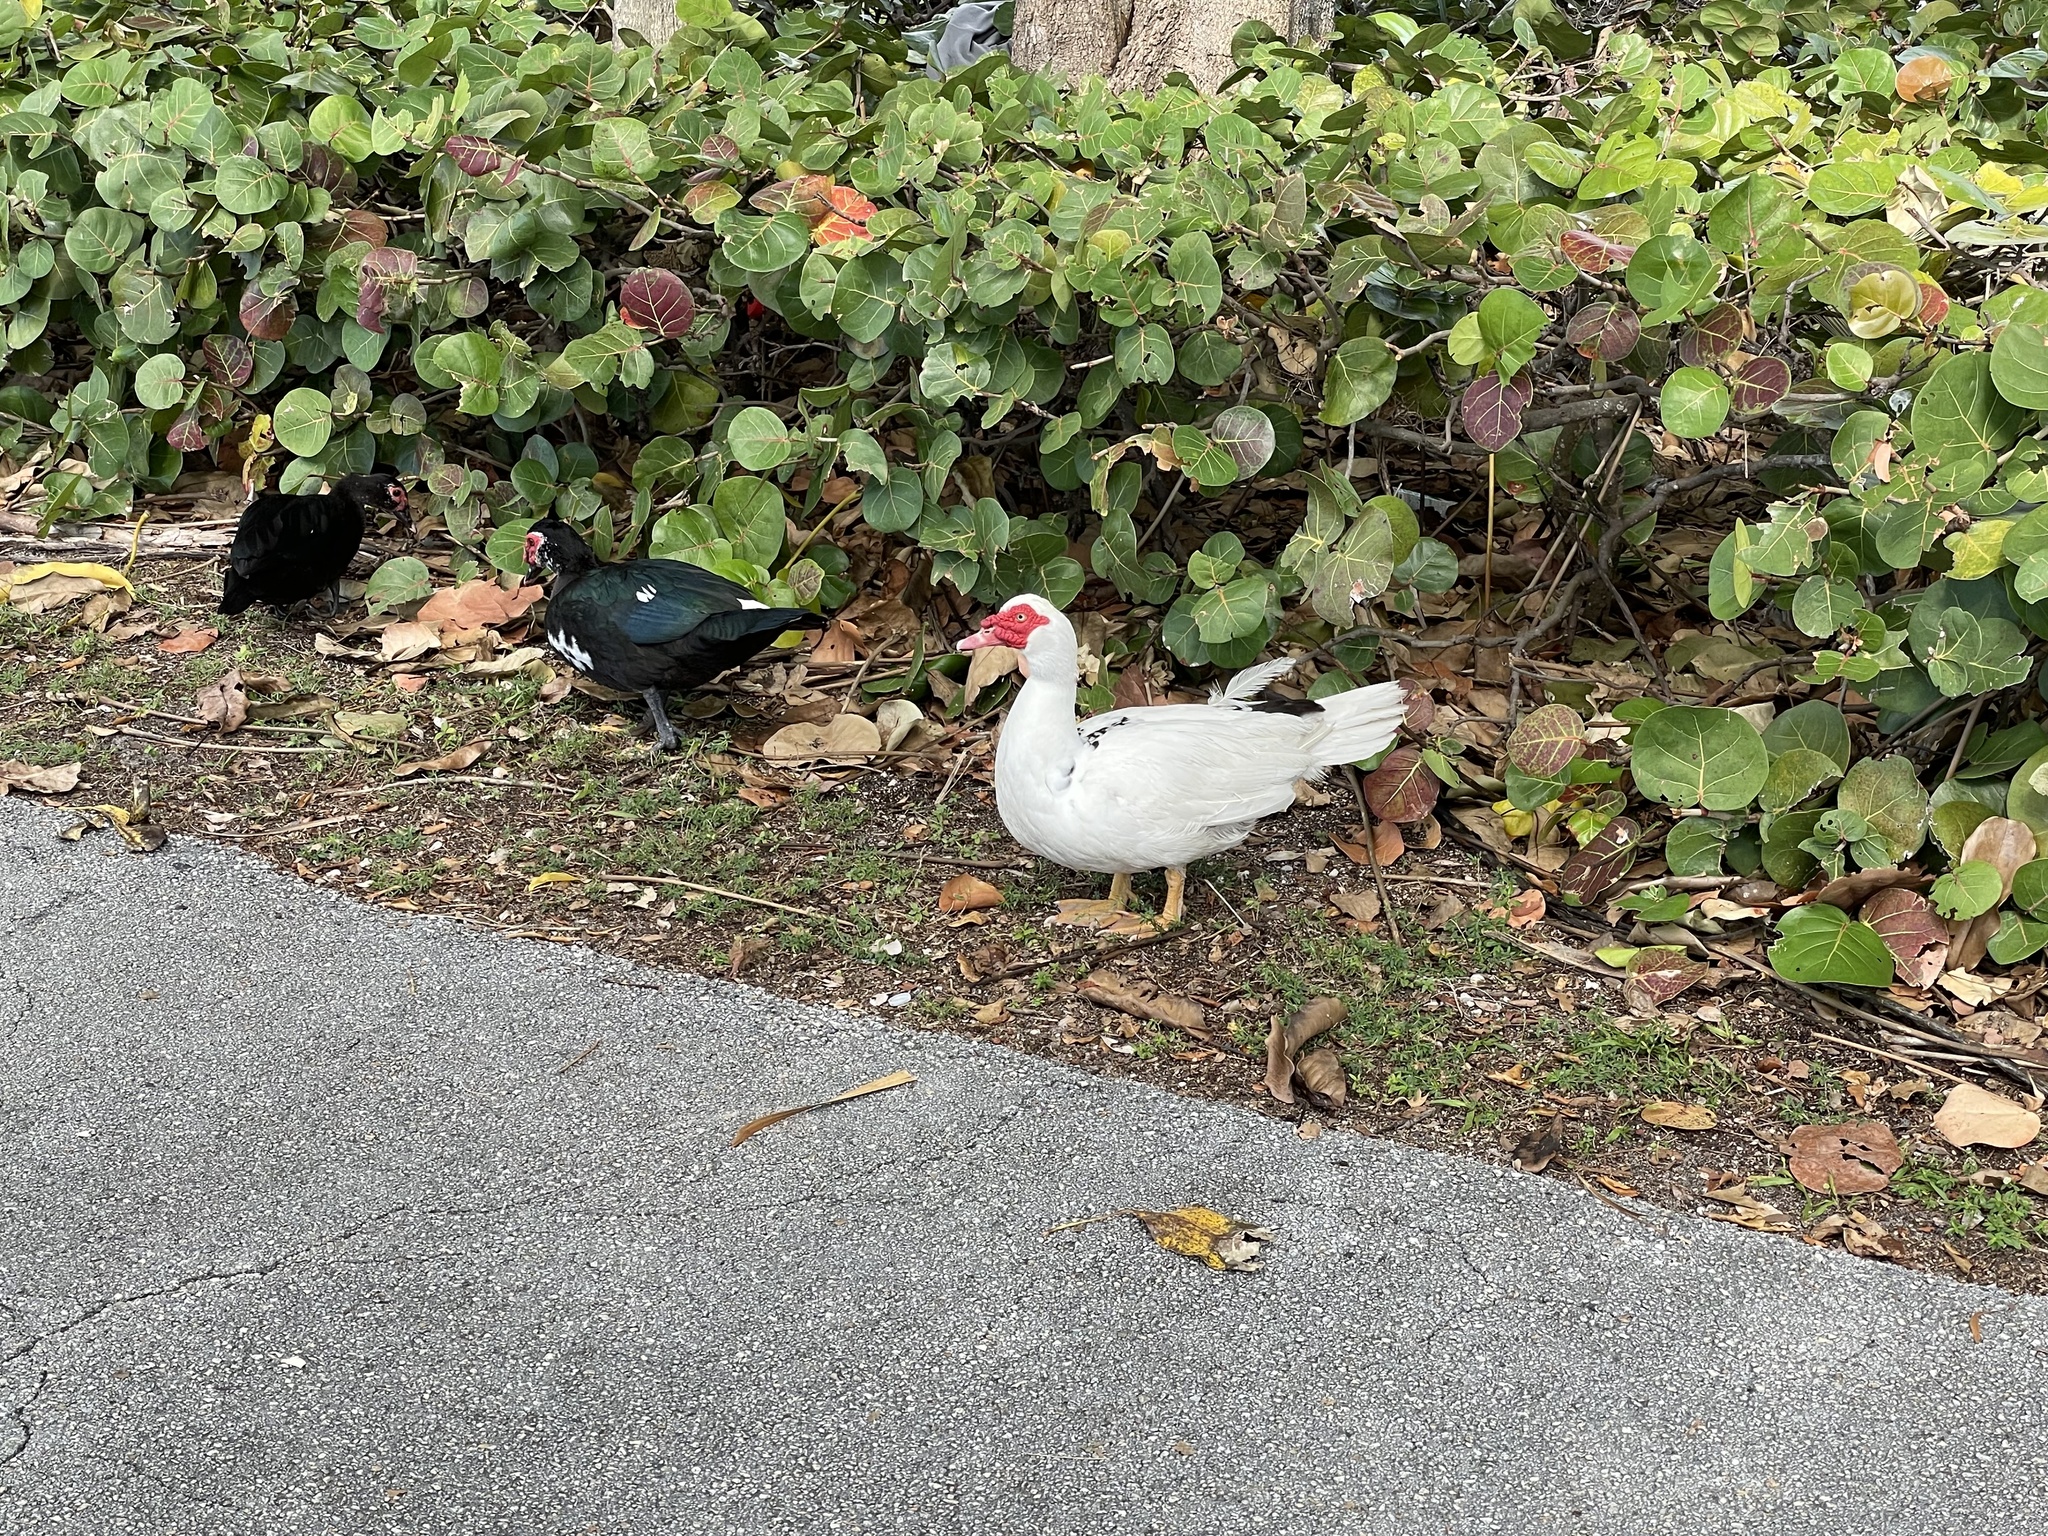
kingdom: Animalia
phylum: Chordata
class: Aves
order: Anseriformes
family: Anatidae
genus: Cairina
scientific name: Cairina moschata
